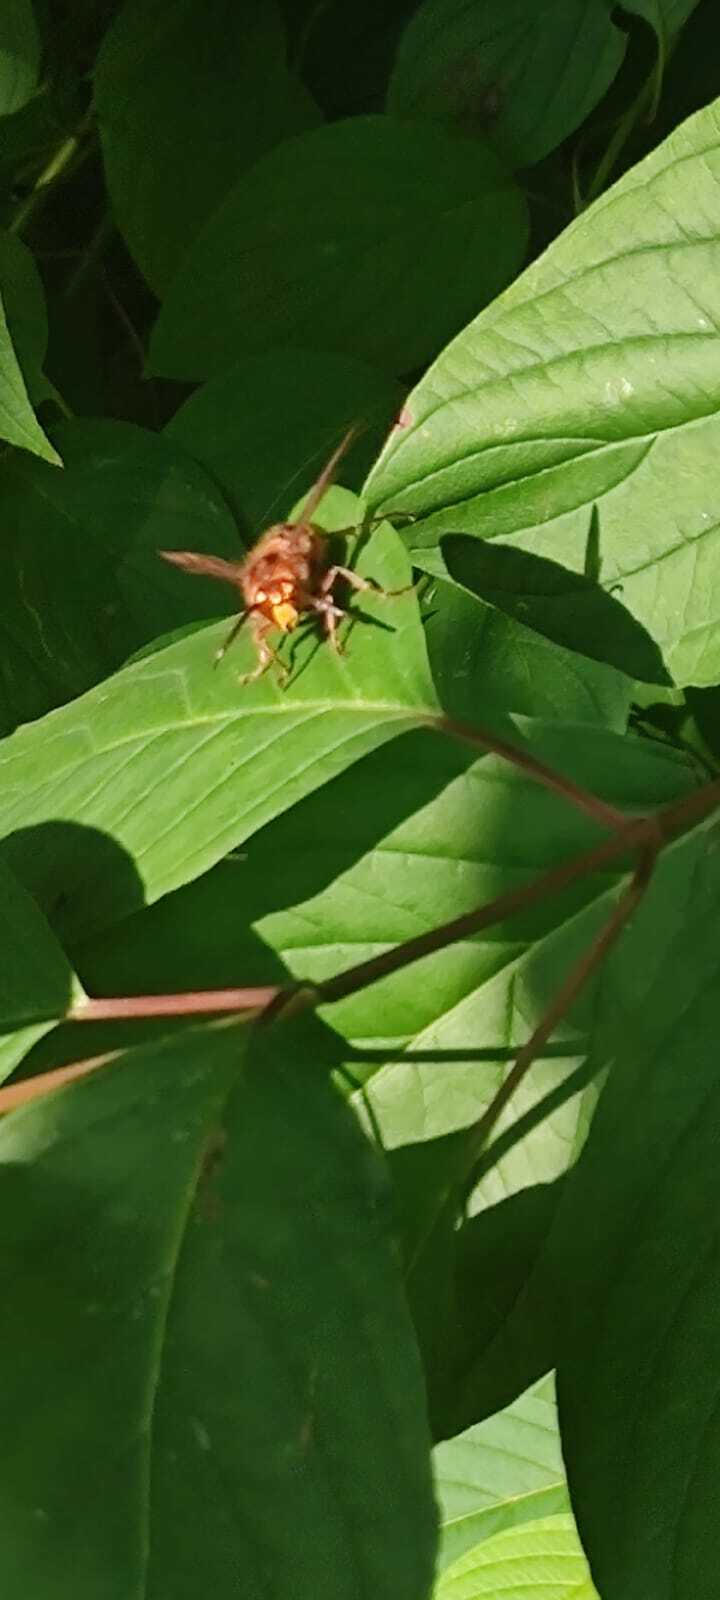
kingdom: Animalia
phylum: Arthropoda
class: Insecta
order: Hymenoptera
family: Vespidae
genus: Vespa
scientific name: Vespa crabro
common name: Hornet
